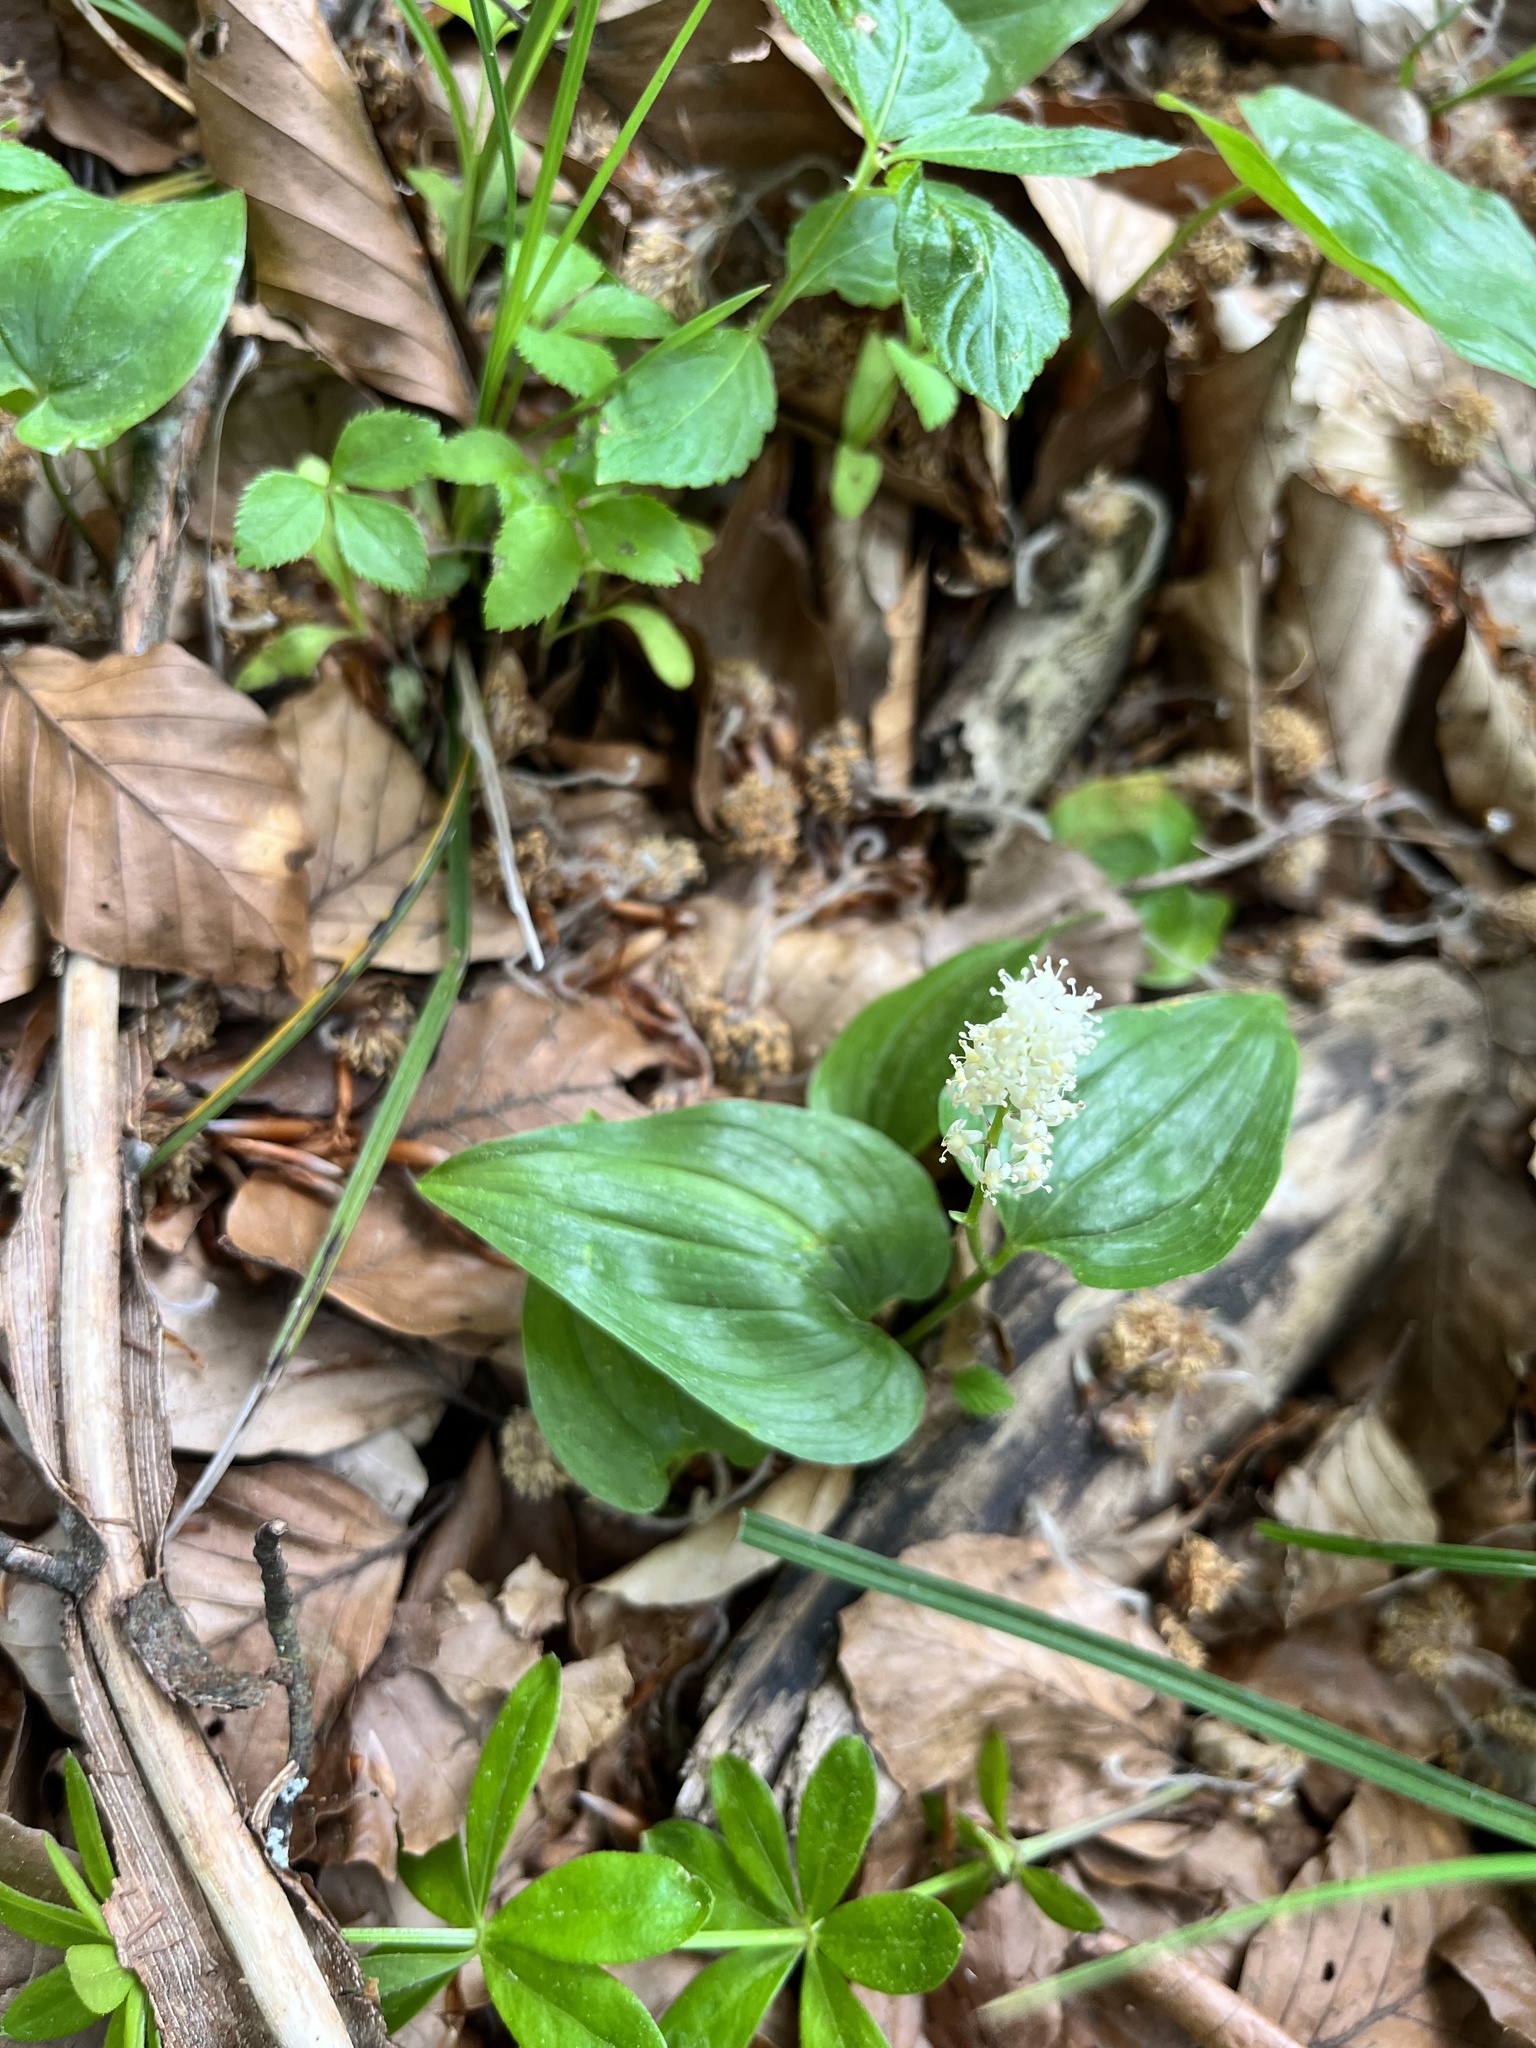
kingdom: Plantae
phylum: Tracheophyta
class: Liliopsida
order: Asparagales
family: Asparagaceae
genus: Maianthemum
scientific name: Maianthemum bifolium
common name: May lily
